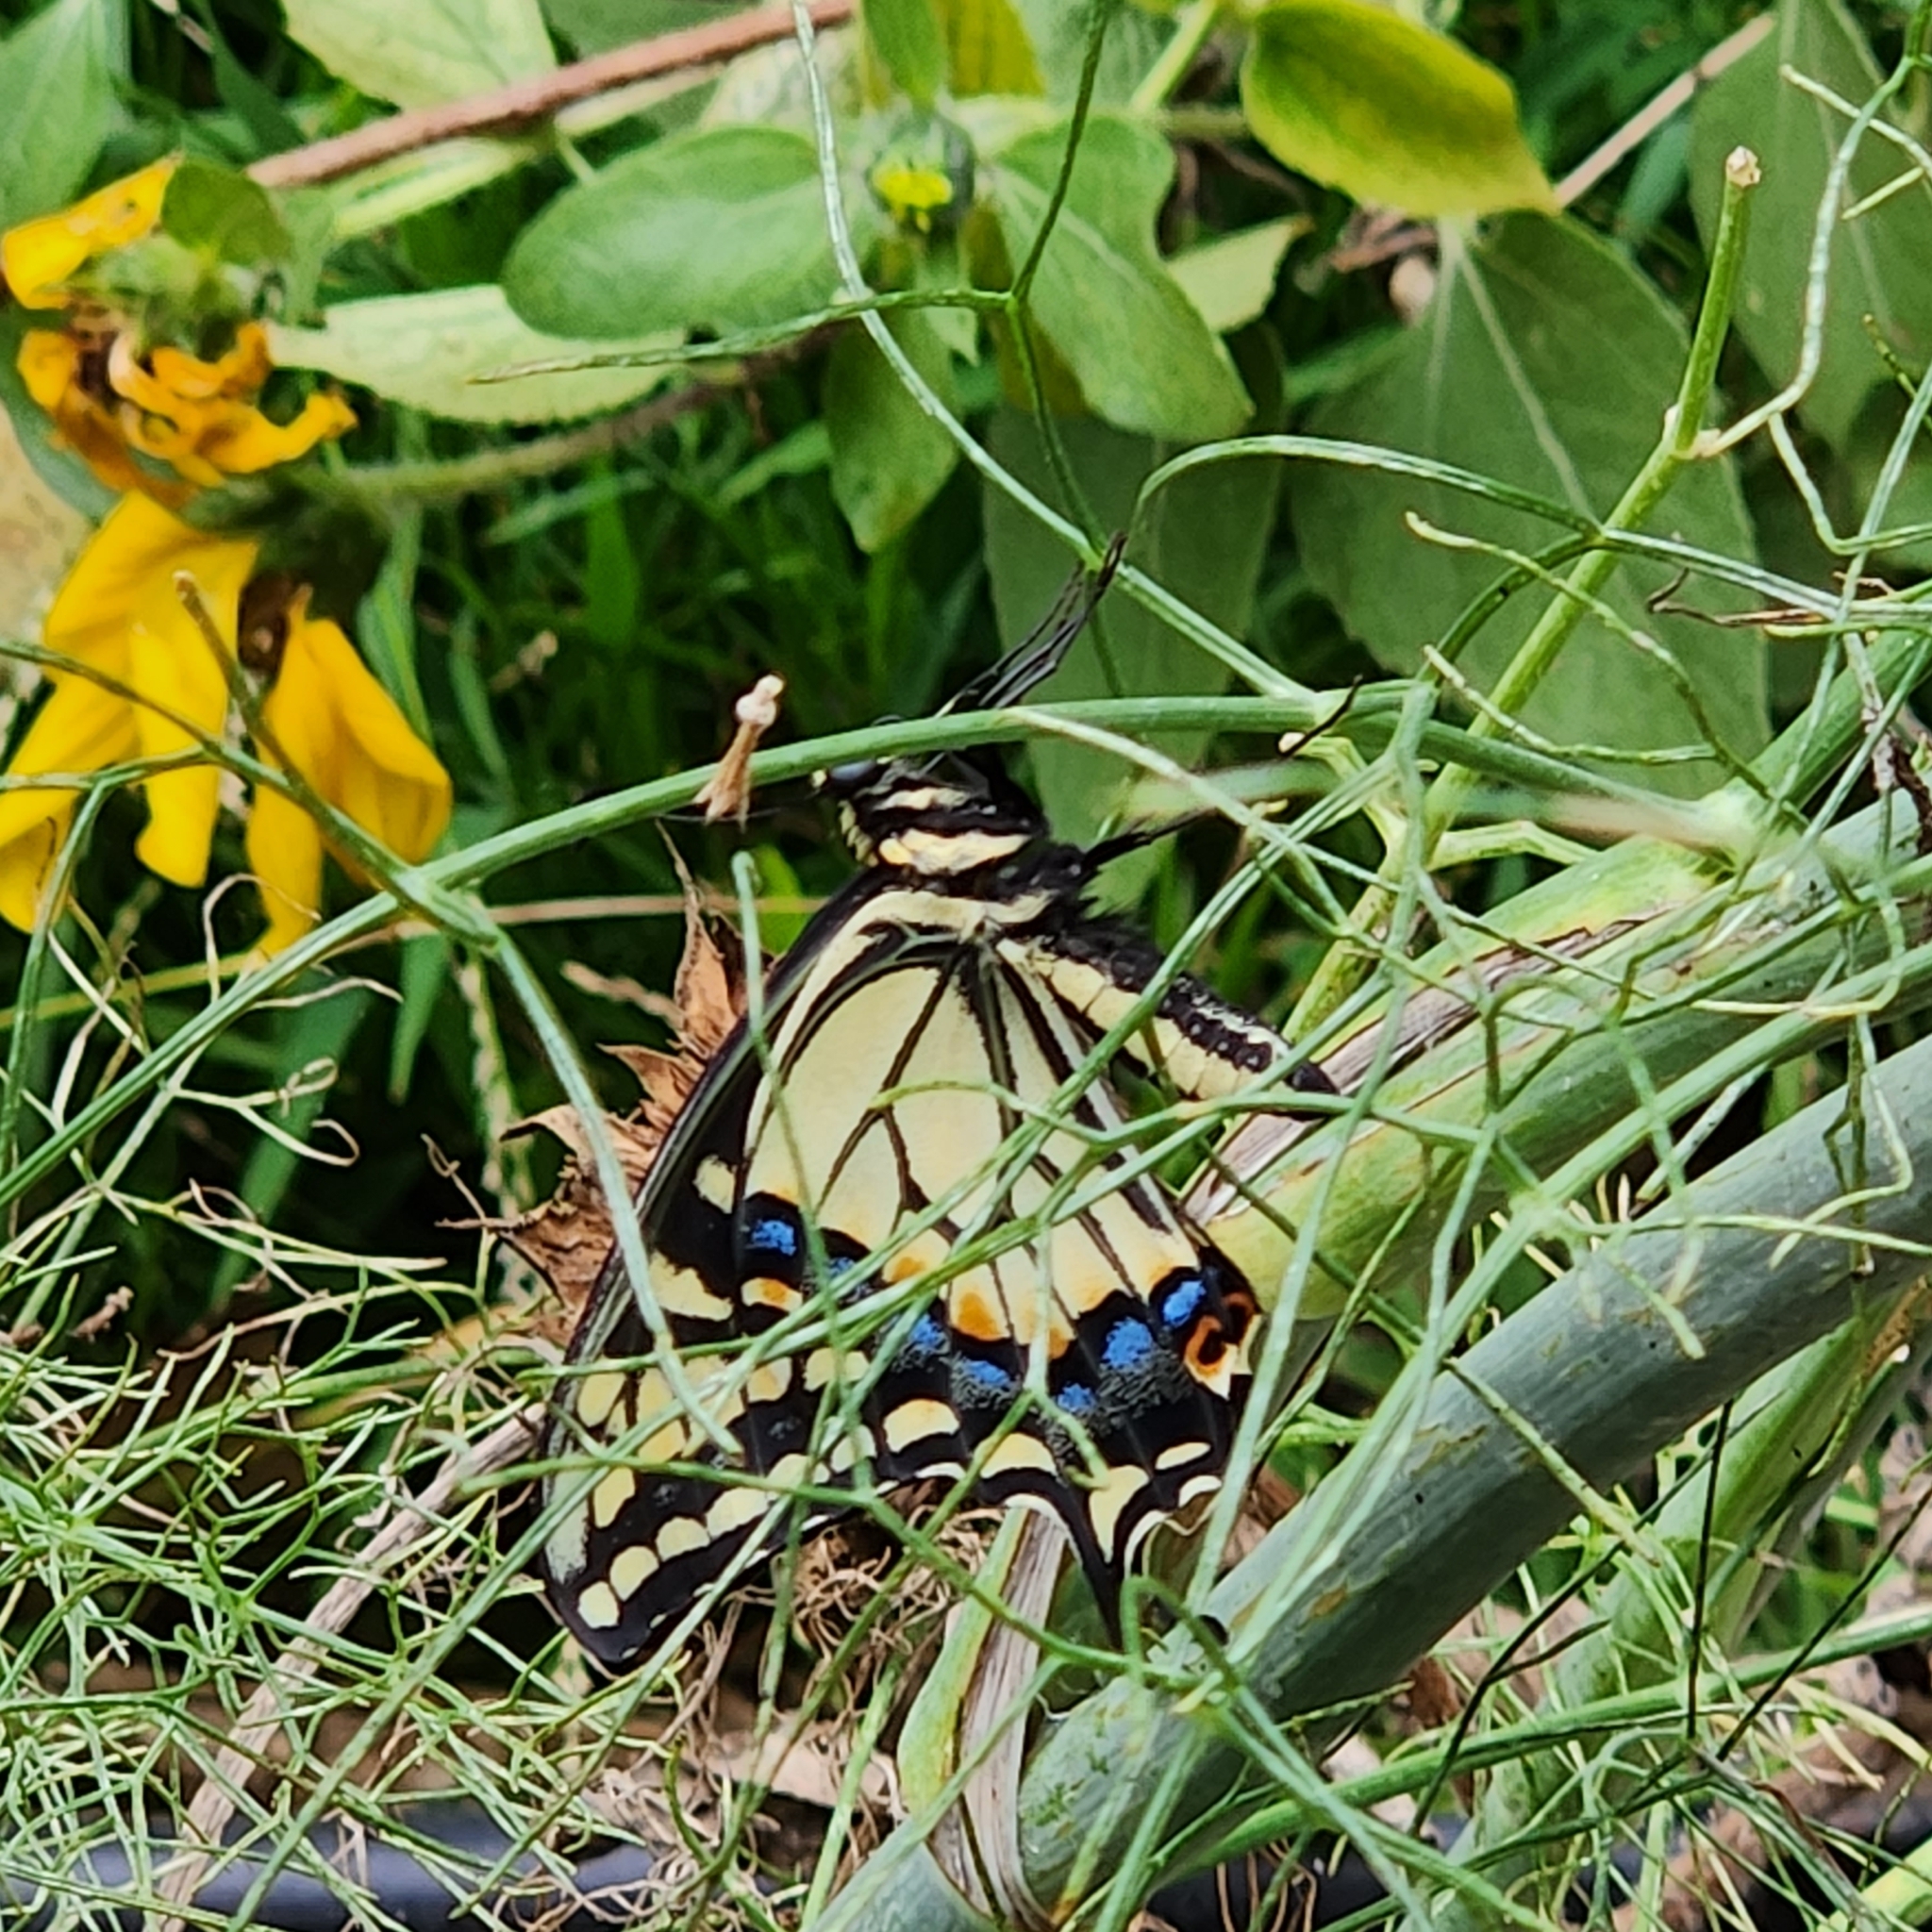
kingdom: Animalia
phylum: Arthropoda
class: Insecta
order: Lepidoptera
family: Papilionidae
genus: Papilio
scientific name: Papilio zelicaon
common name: Anise swallowtail
